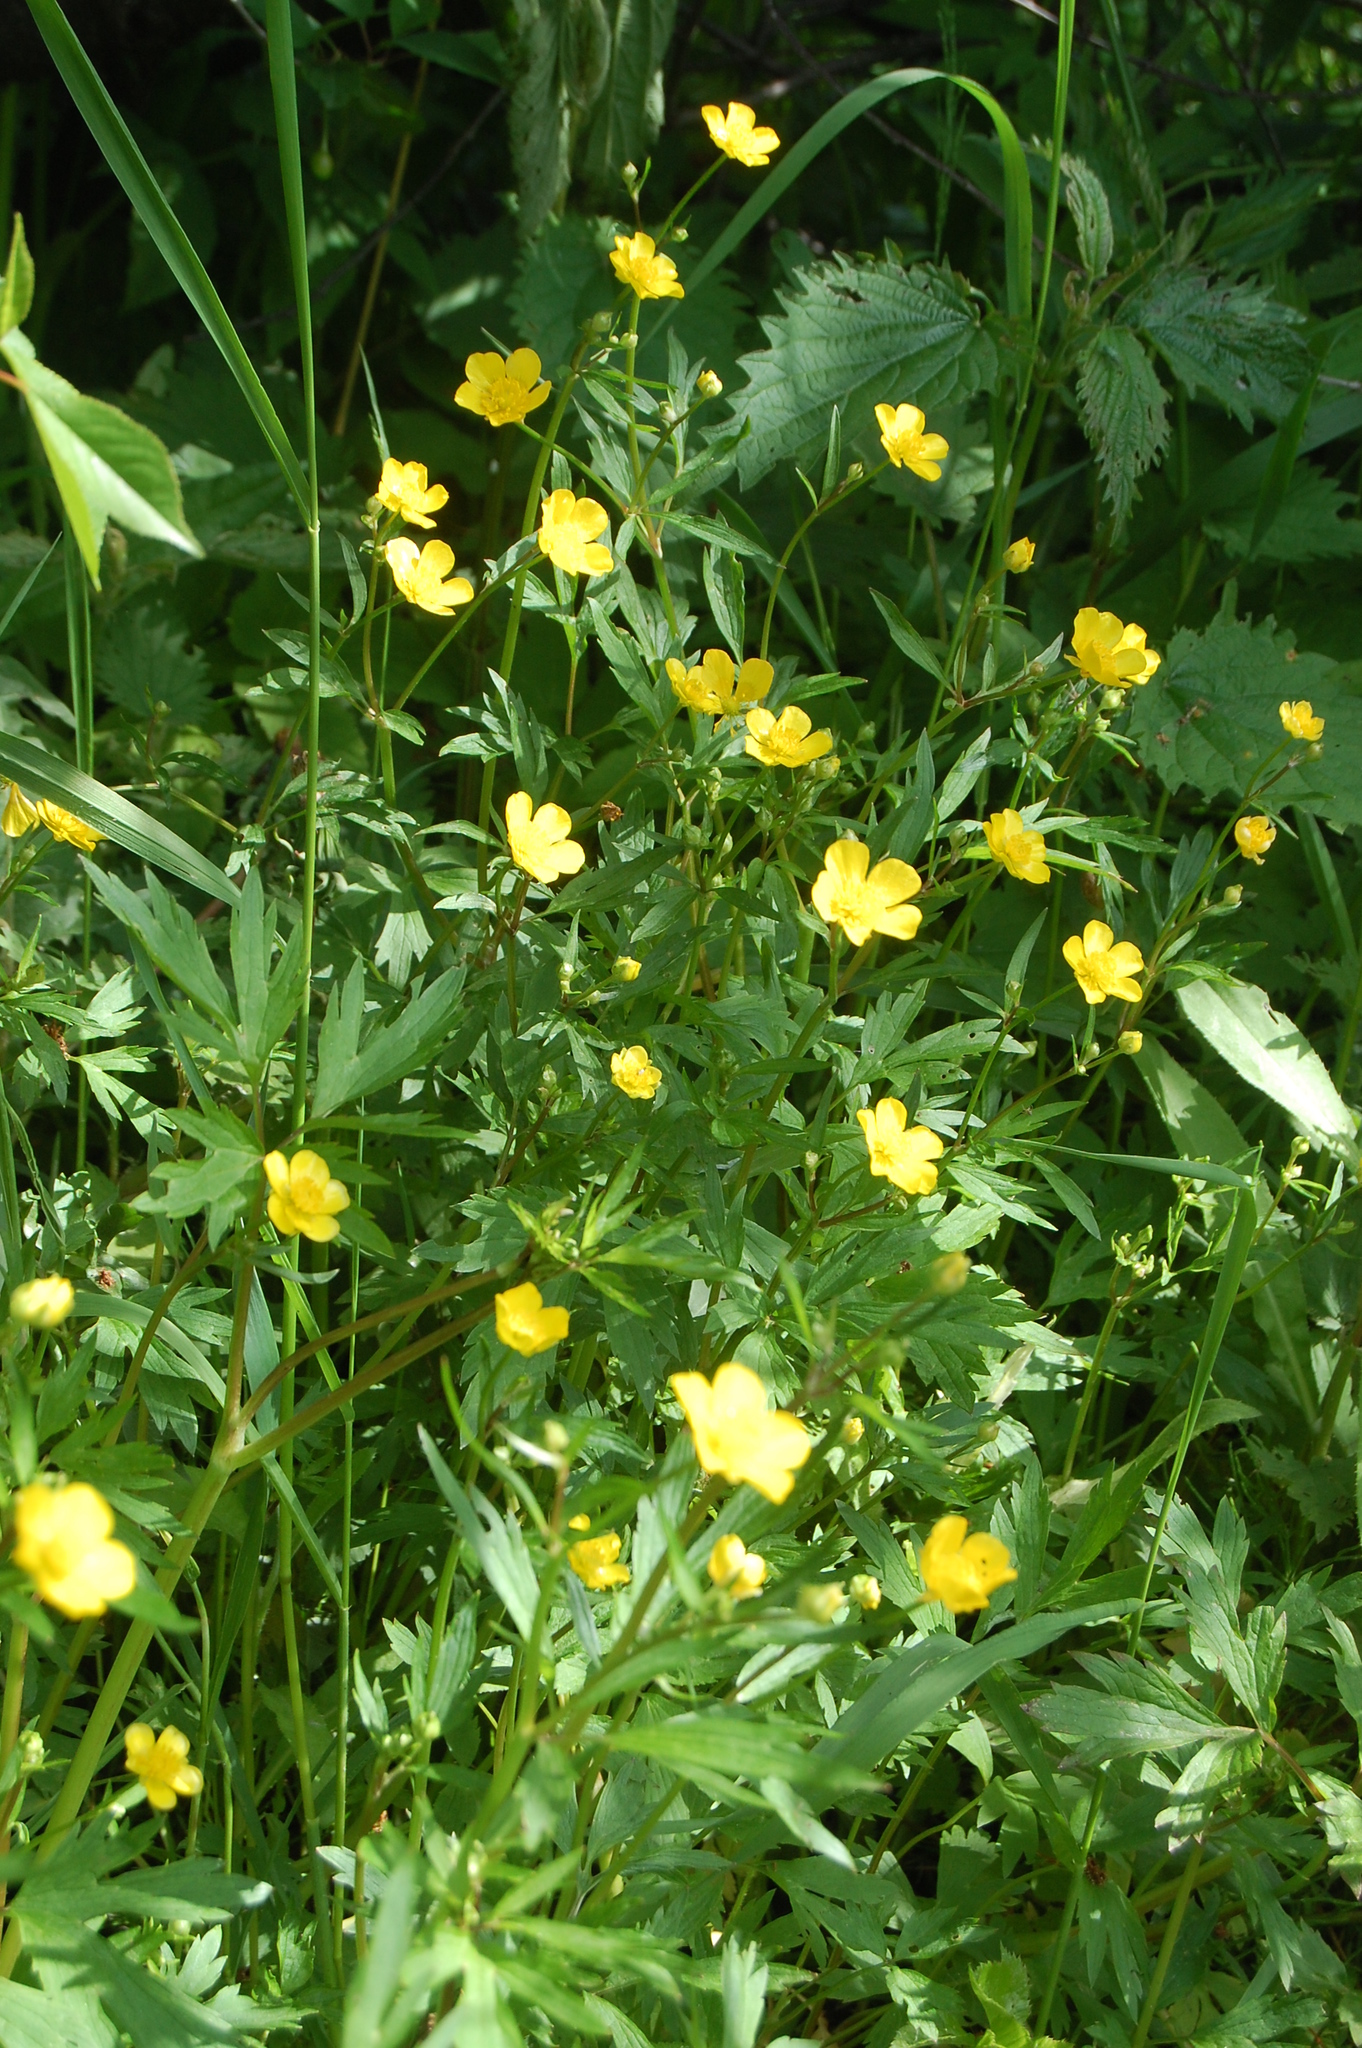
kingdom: Plantae
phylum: Tracheophyta
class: Magnoliopsida
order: Ranunculales
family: Ranunculaceae
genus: Ranunculus
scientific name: Ranunculus repens
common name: Creeping buttercup
